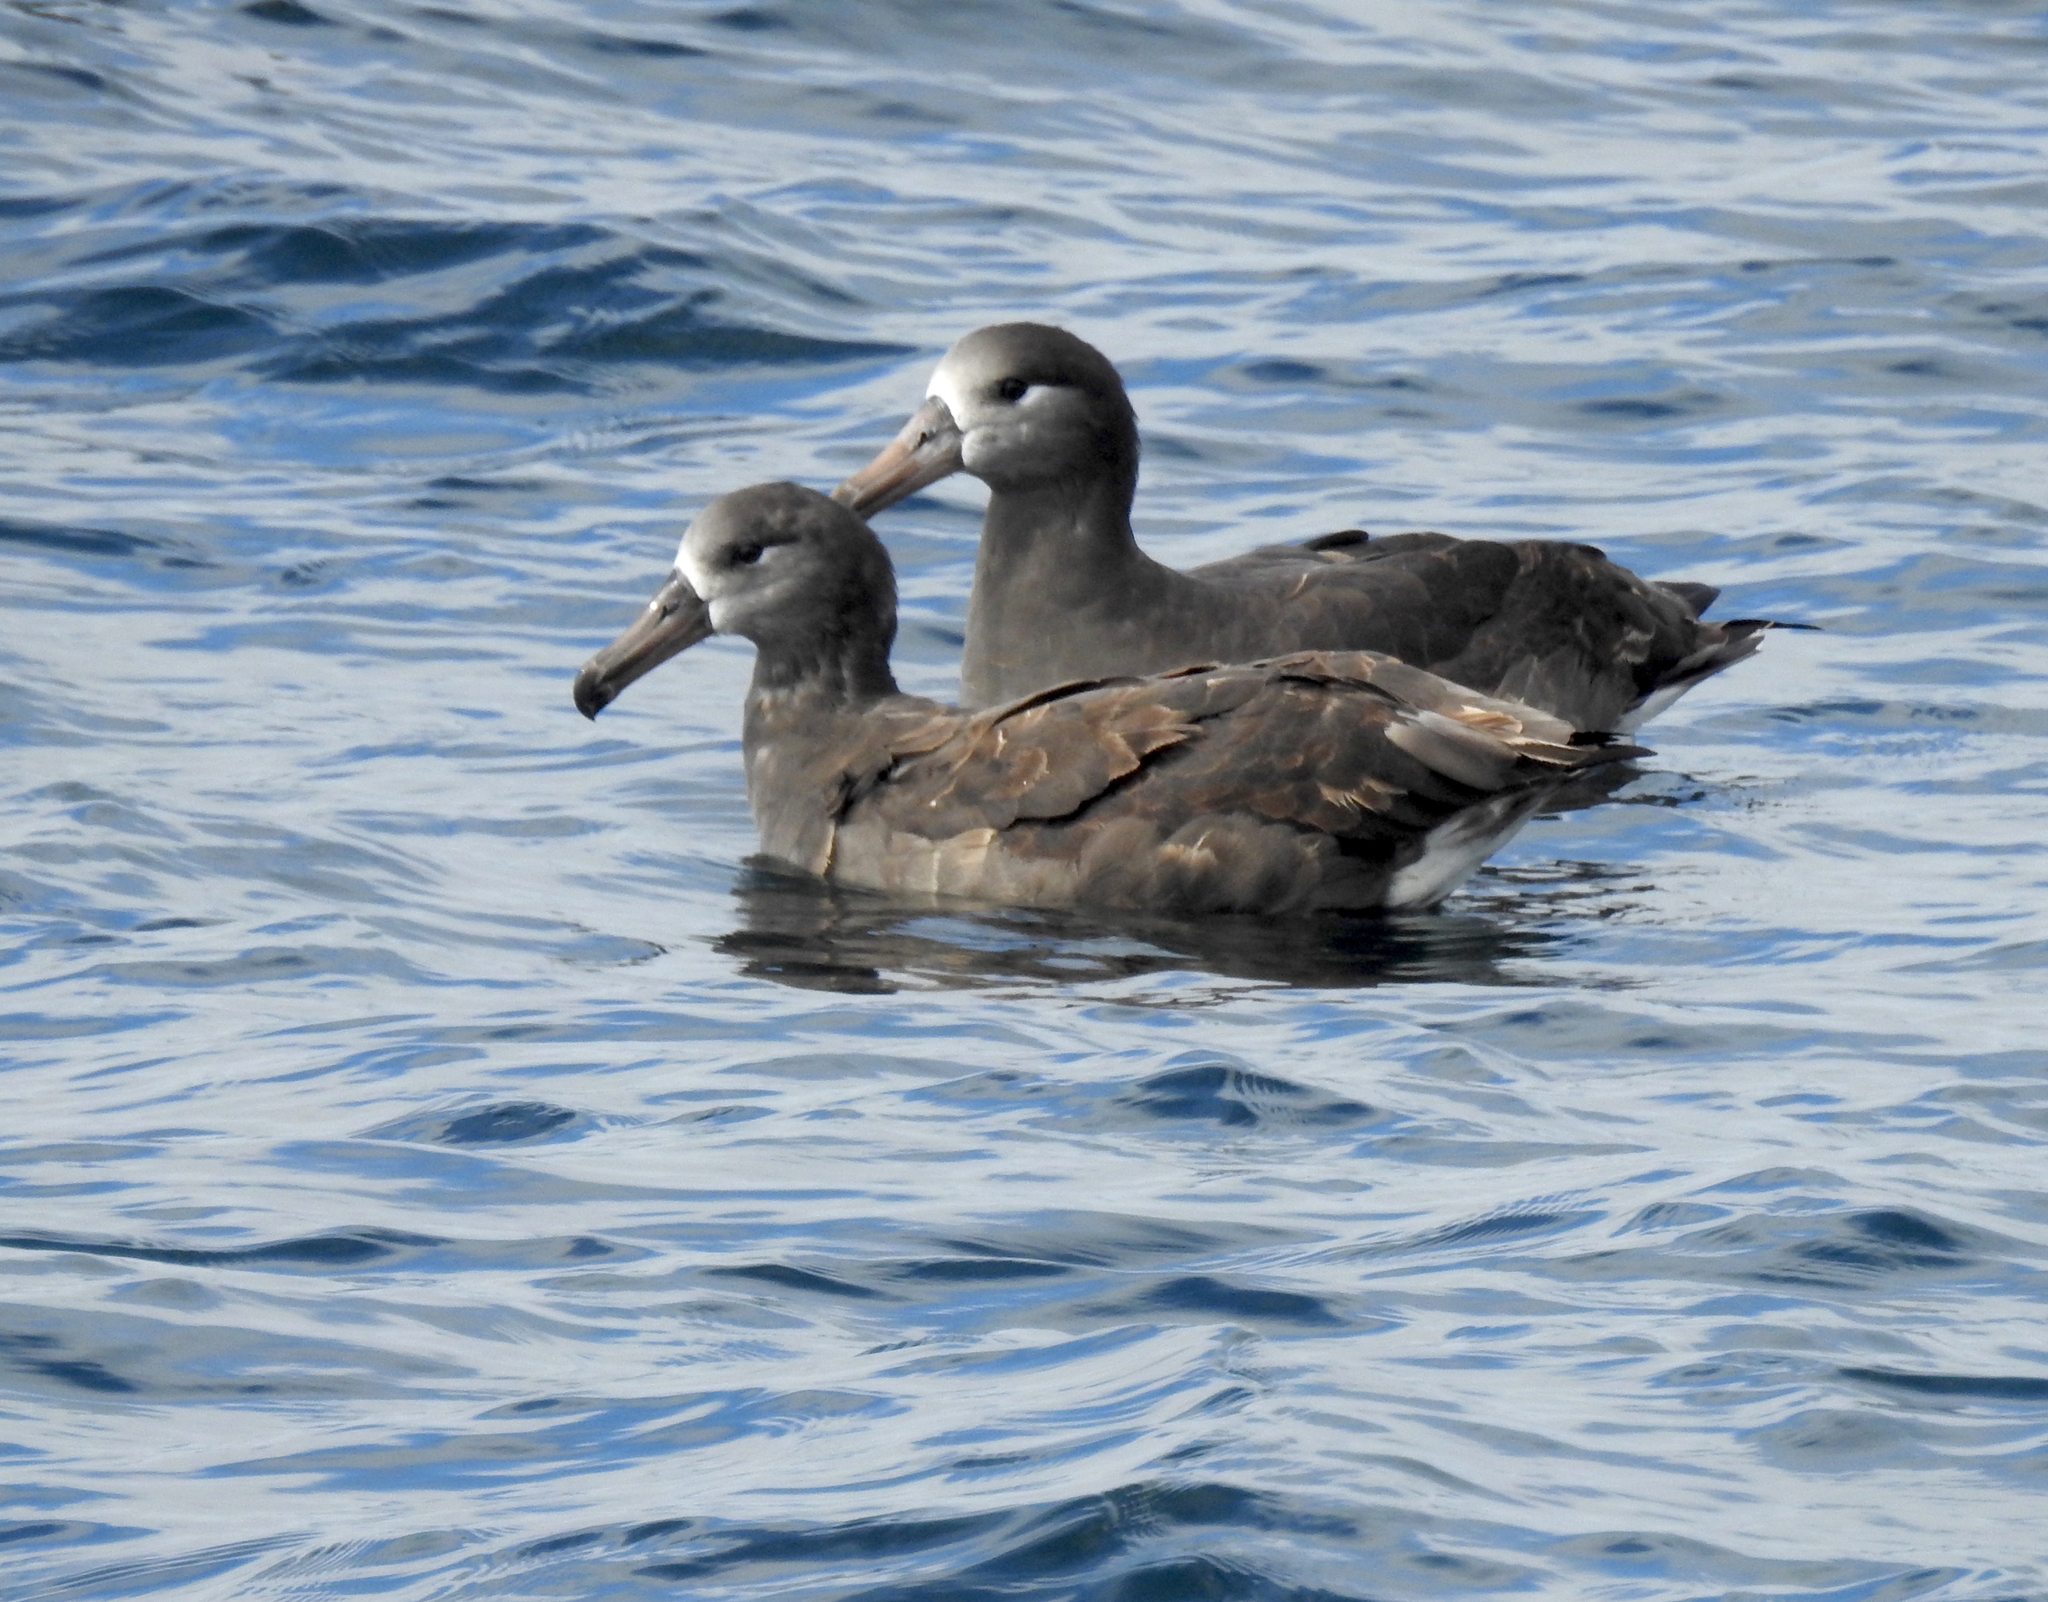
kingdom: Animalia
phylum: Chordata
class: Aves
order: Procellariiformes
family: Diomedeidae
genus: Phoebastria
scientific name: Phoebastria nigripes
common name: Black-footed albatross
